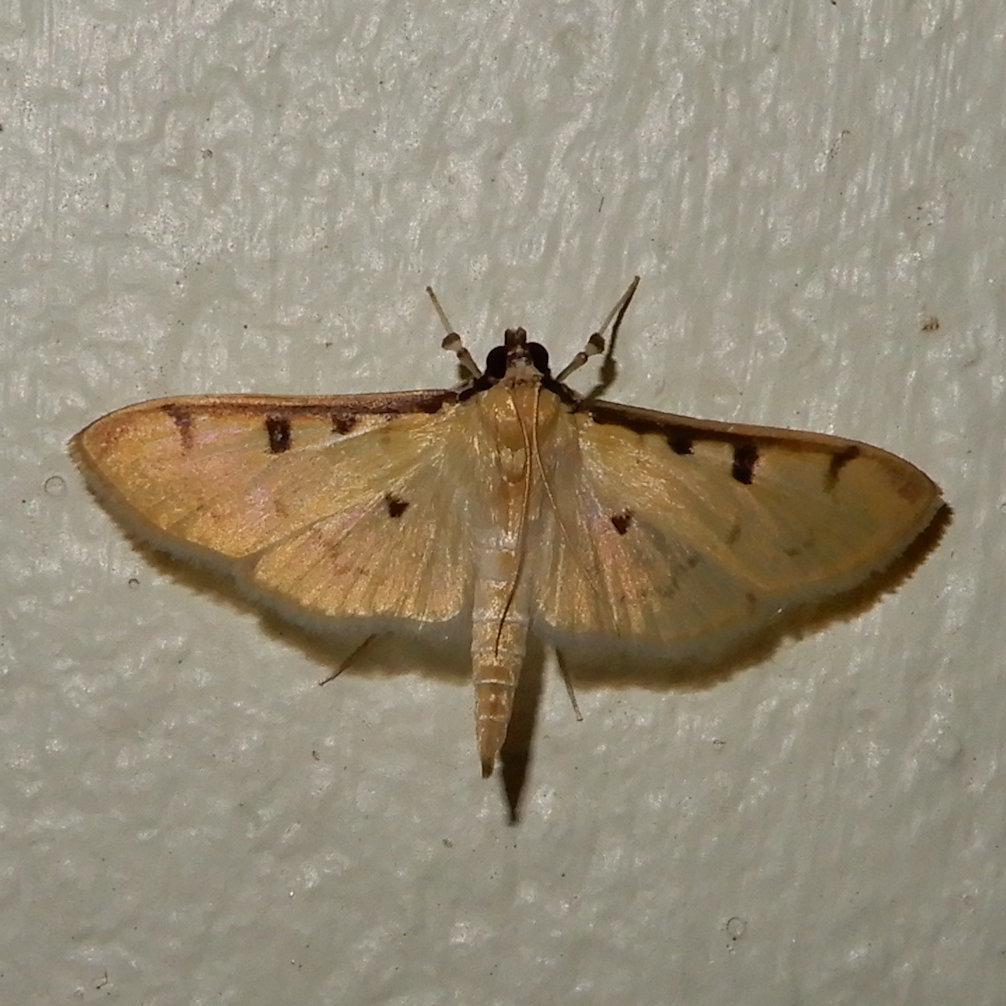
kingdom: Animalia
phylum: Arthropoda
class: Insecta
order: Lepidoptera
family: Crambidae
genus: Lygropia
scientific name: Lygropia tripunctata
